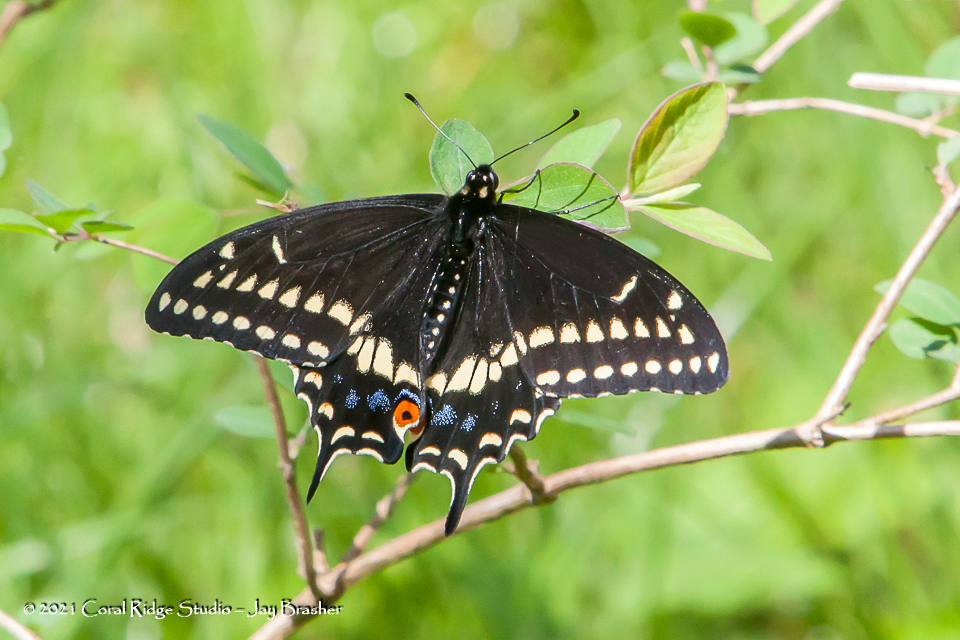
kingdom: Animalia
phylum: Arthropoda
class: Insecta
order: Lepidoptera
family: Papilionidae
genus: Papilio
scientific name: Papilio polyxenes
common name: Black swallowtail
